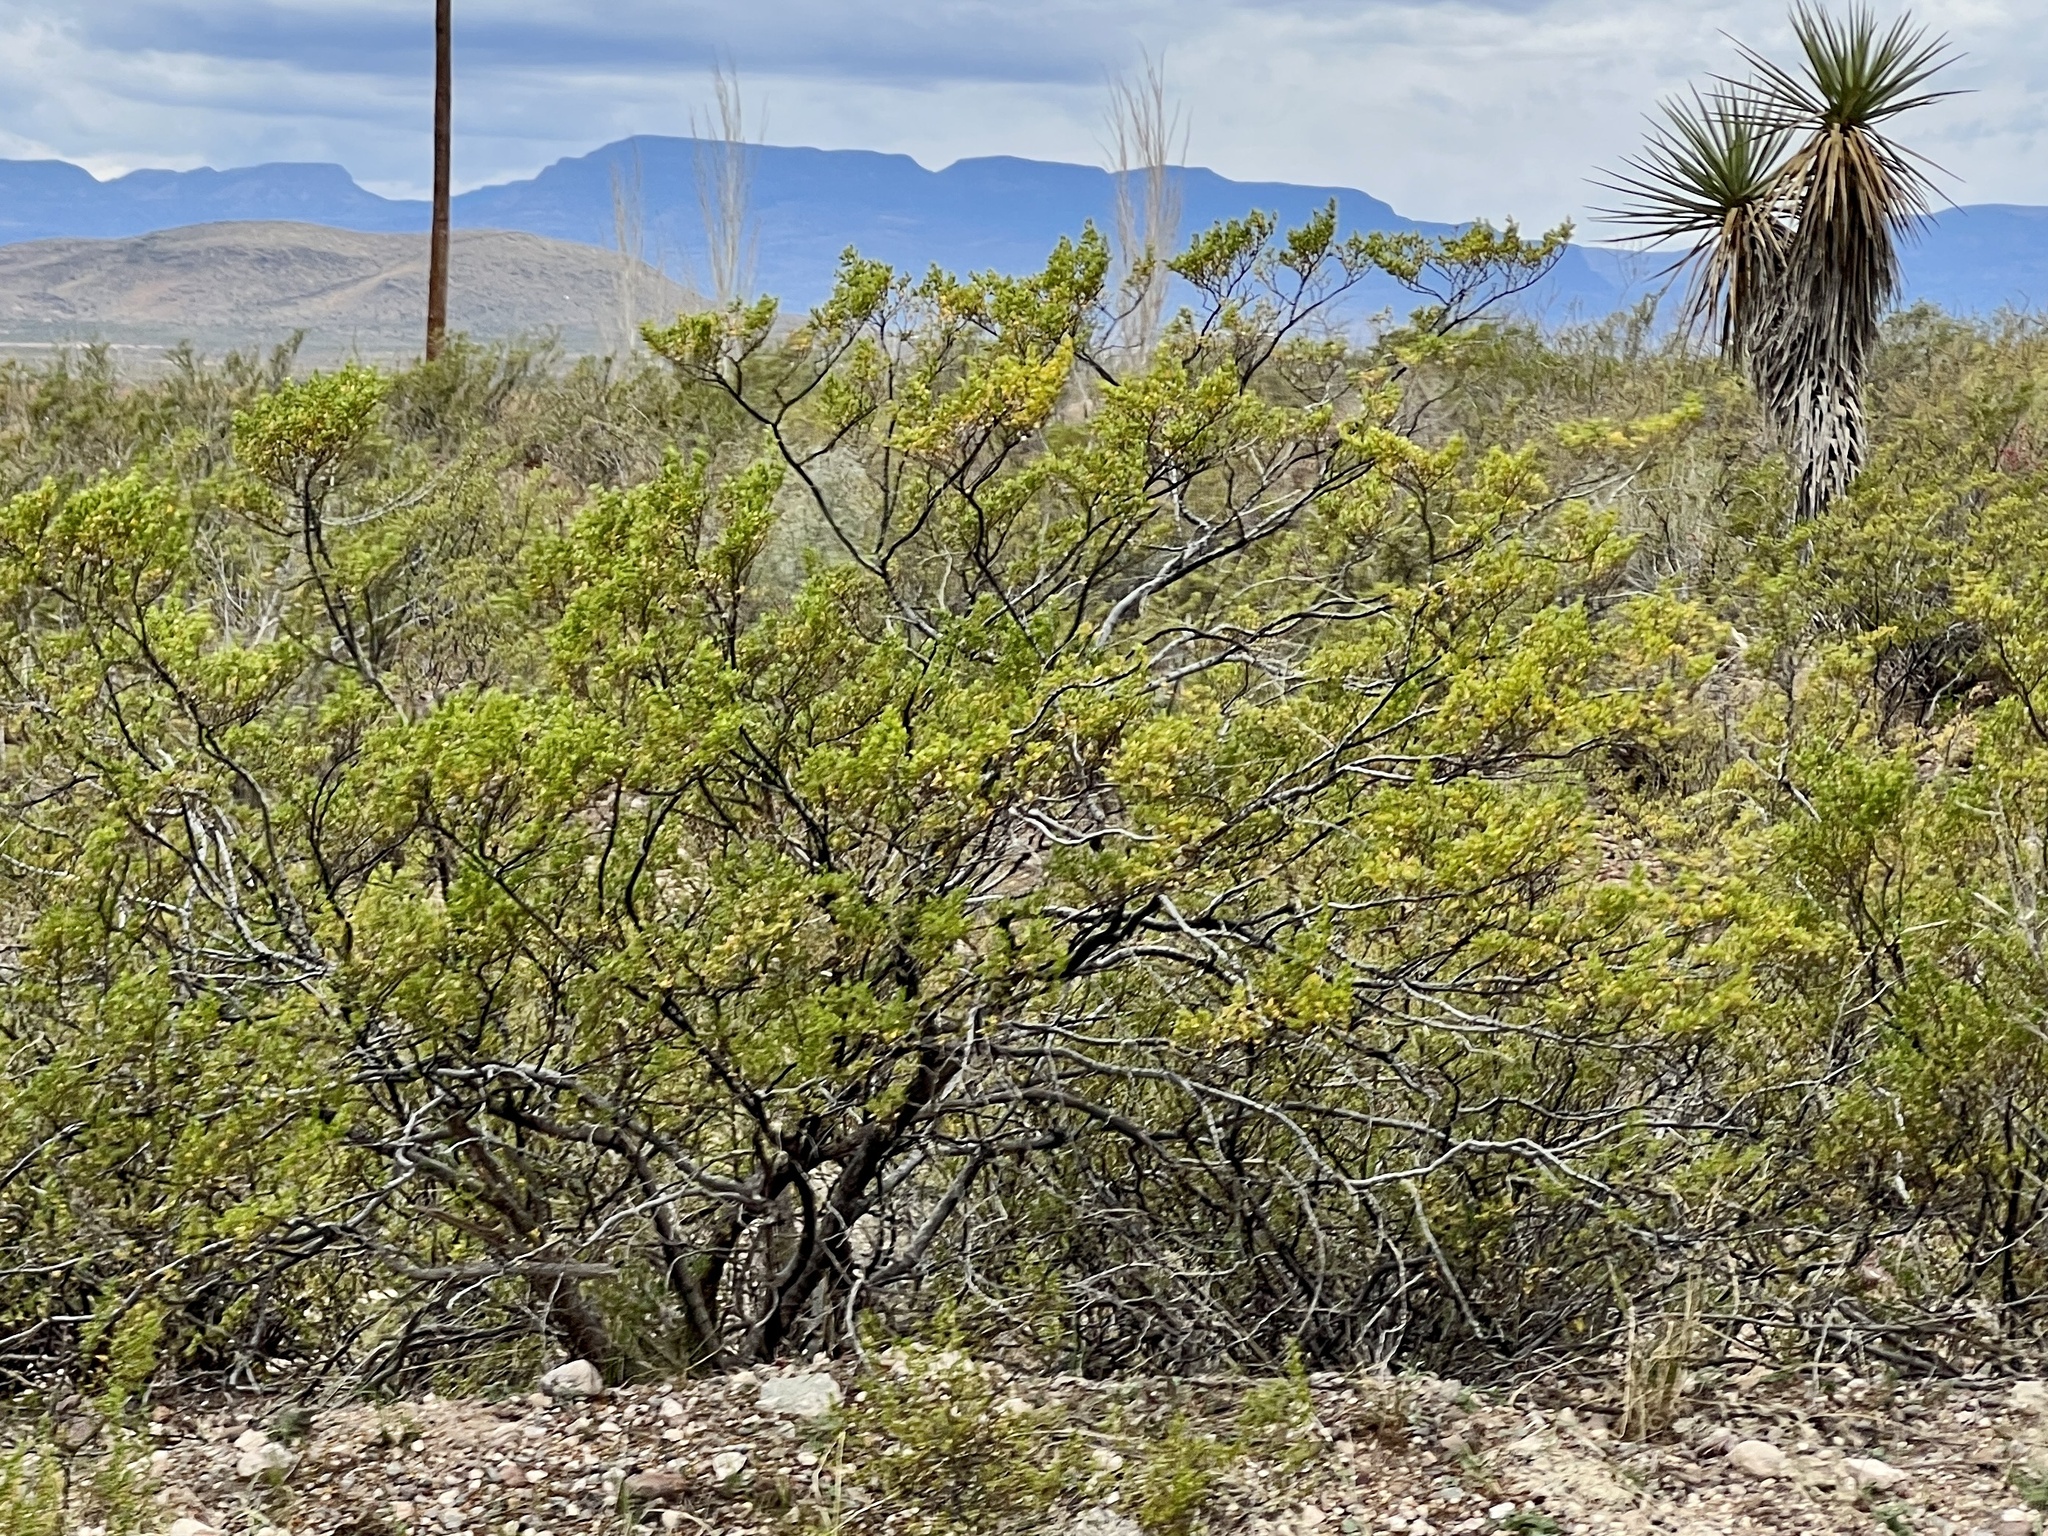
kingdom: Plantae
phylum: Tracheophyta
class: Magnoliopsida
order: Zygophyllales
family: Zygophyllaceae
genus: Larrea
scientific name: Larrea tridentata
